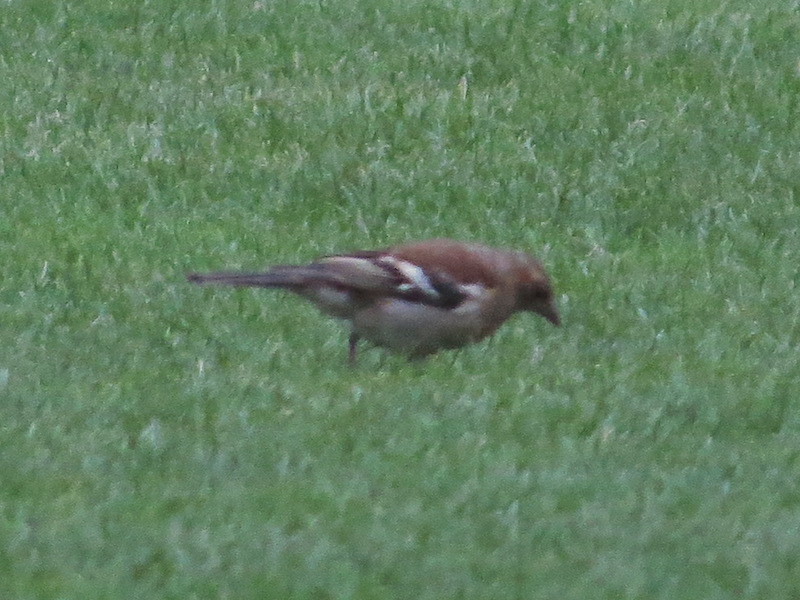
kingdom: Animalia
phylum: Chordata
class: Aves
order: Passeriformes
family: Fringillidae
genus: Fringilla
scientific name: Fringilla coelebs
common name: Common chaffinch
